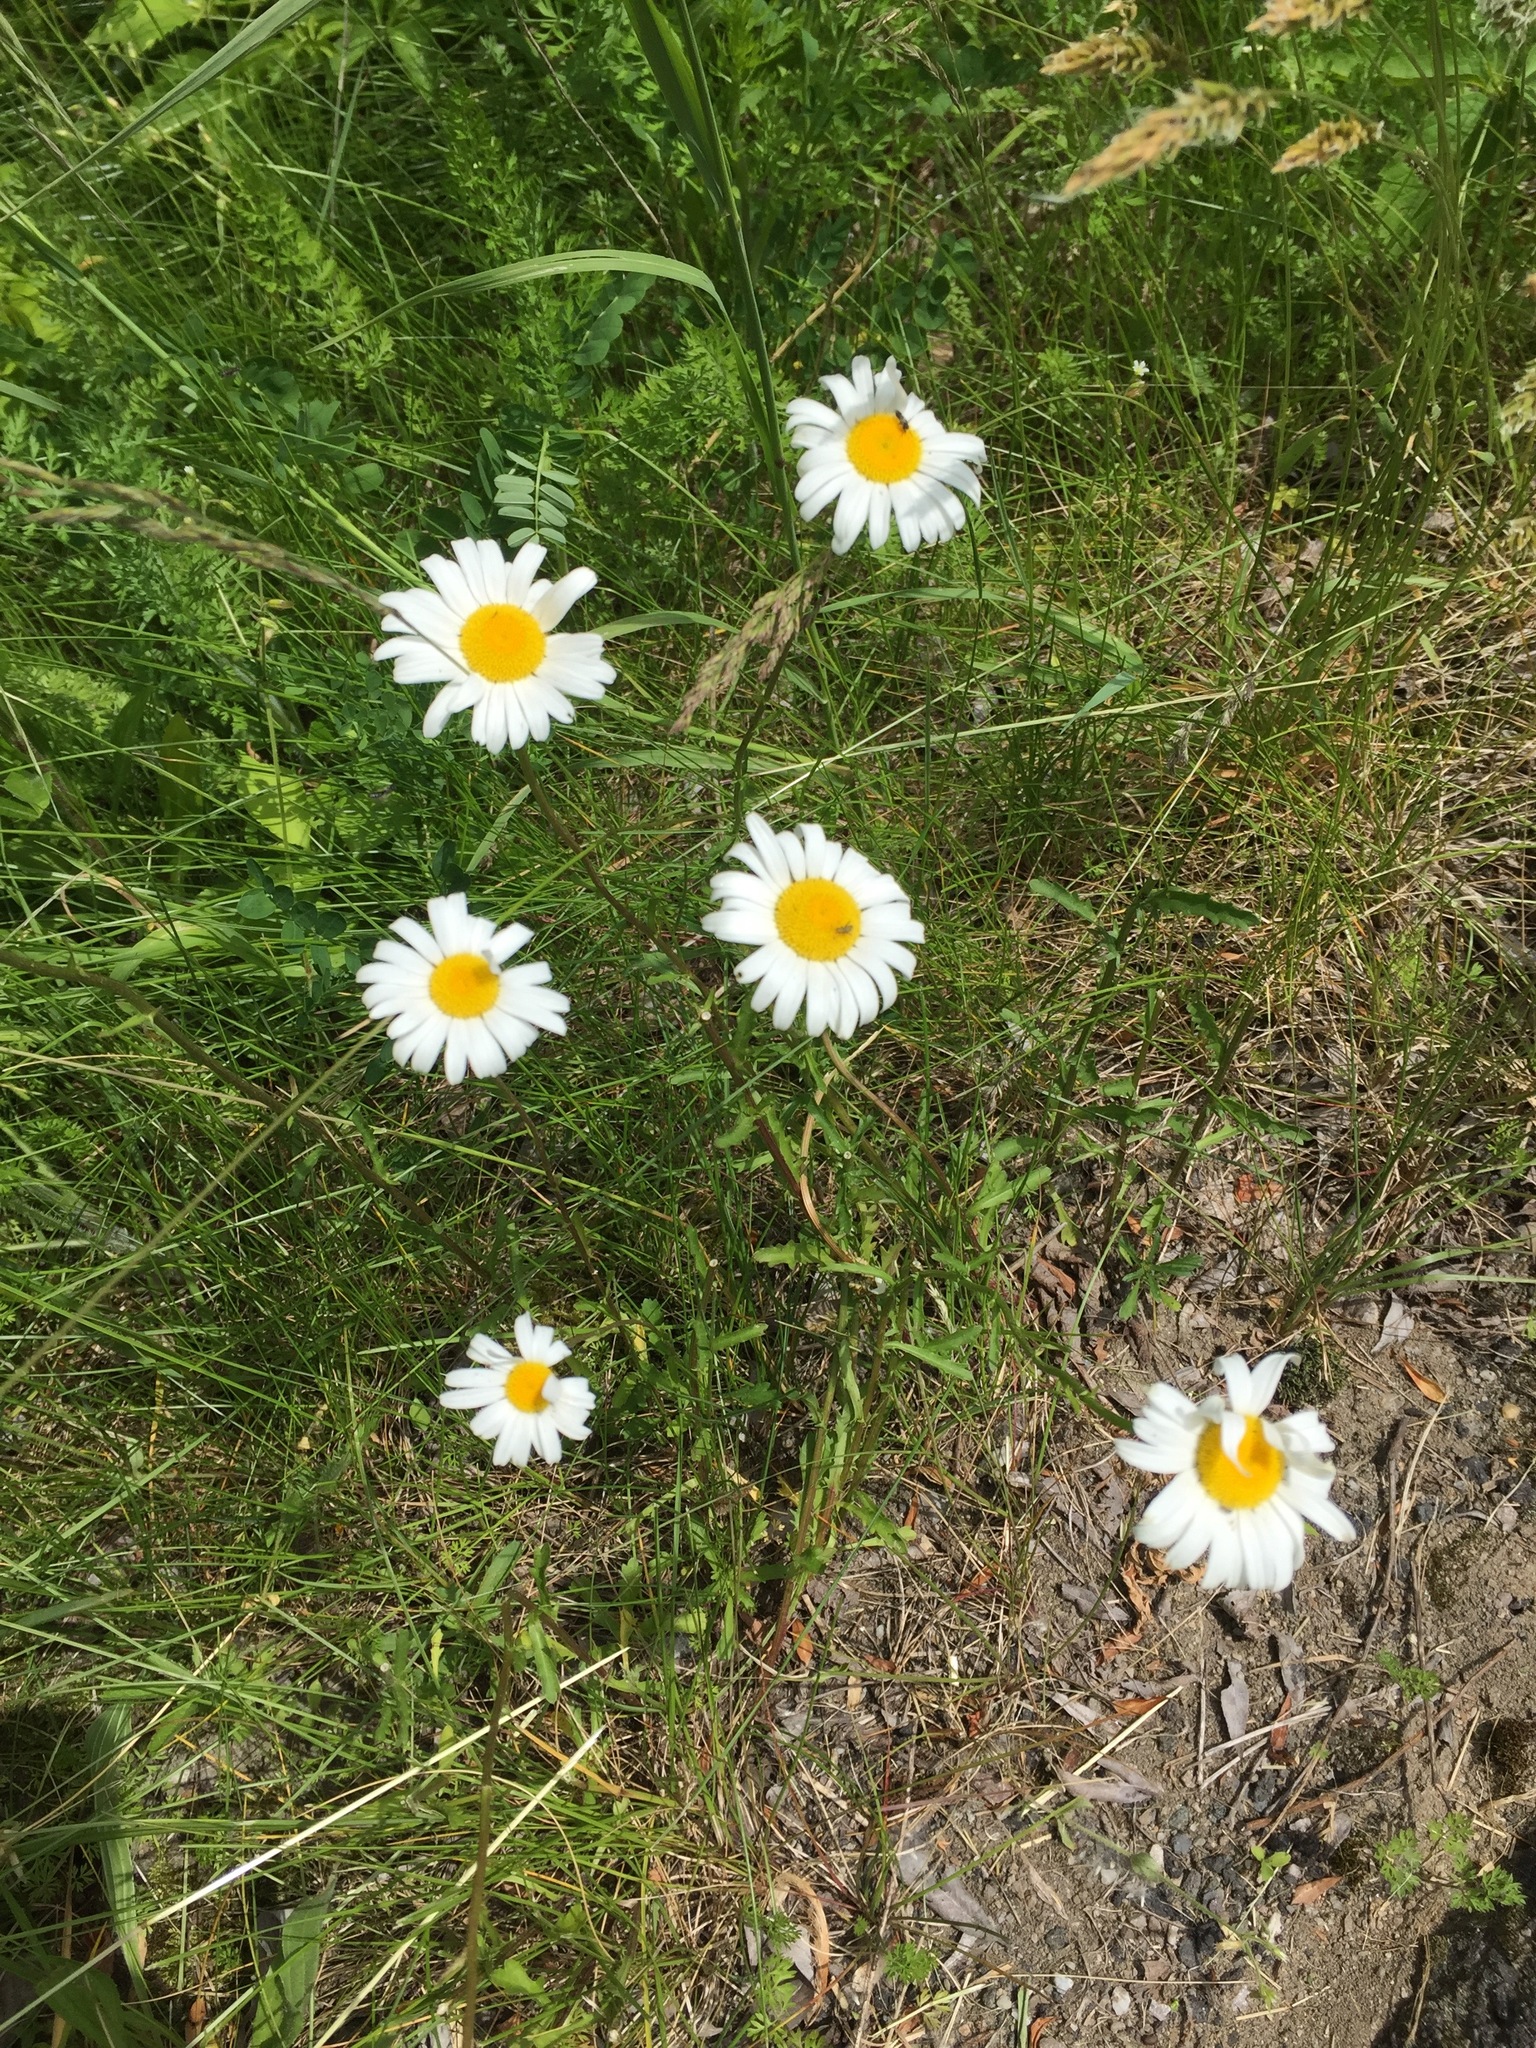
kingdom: Plantae
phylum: Tracheophyta
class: Magnoliopsida
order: Asterales
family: Asteraceae
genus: Leucanthemum
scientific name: Leucanthemum vulgare
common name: Oxeye daisy
